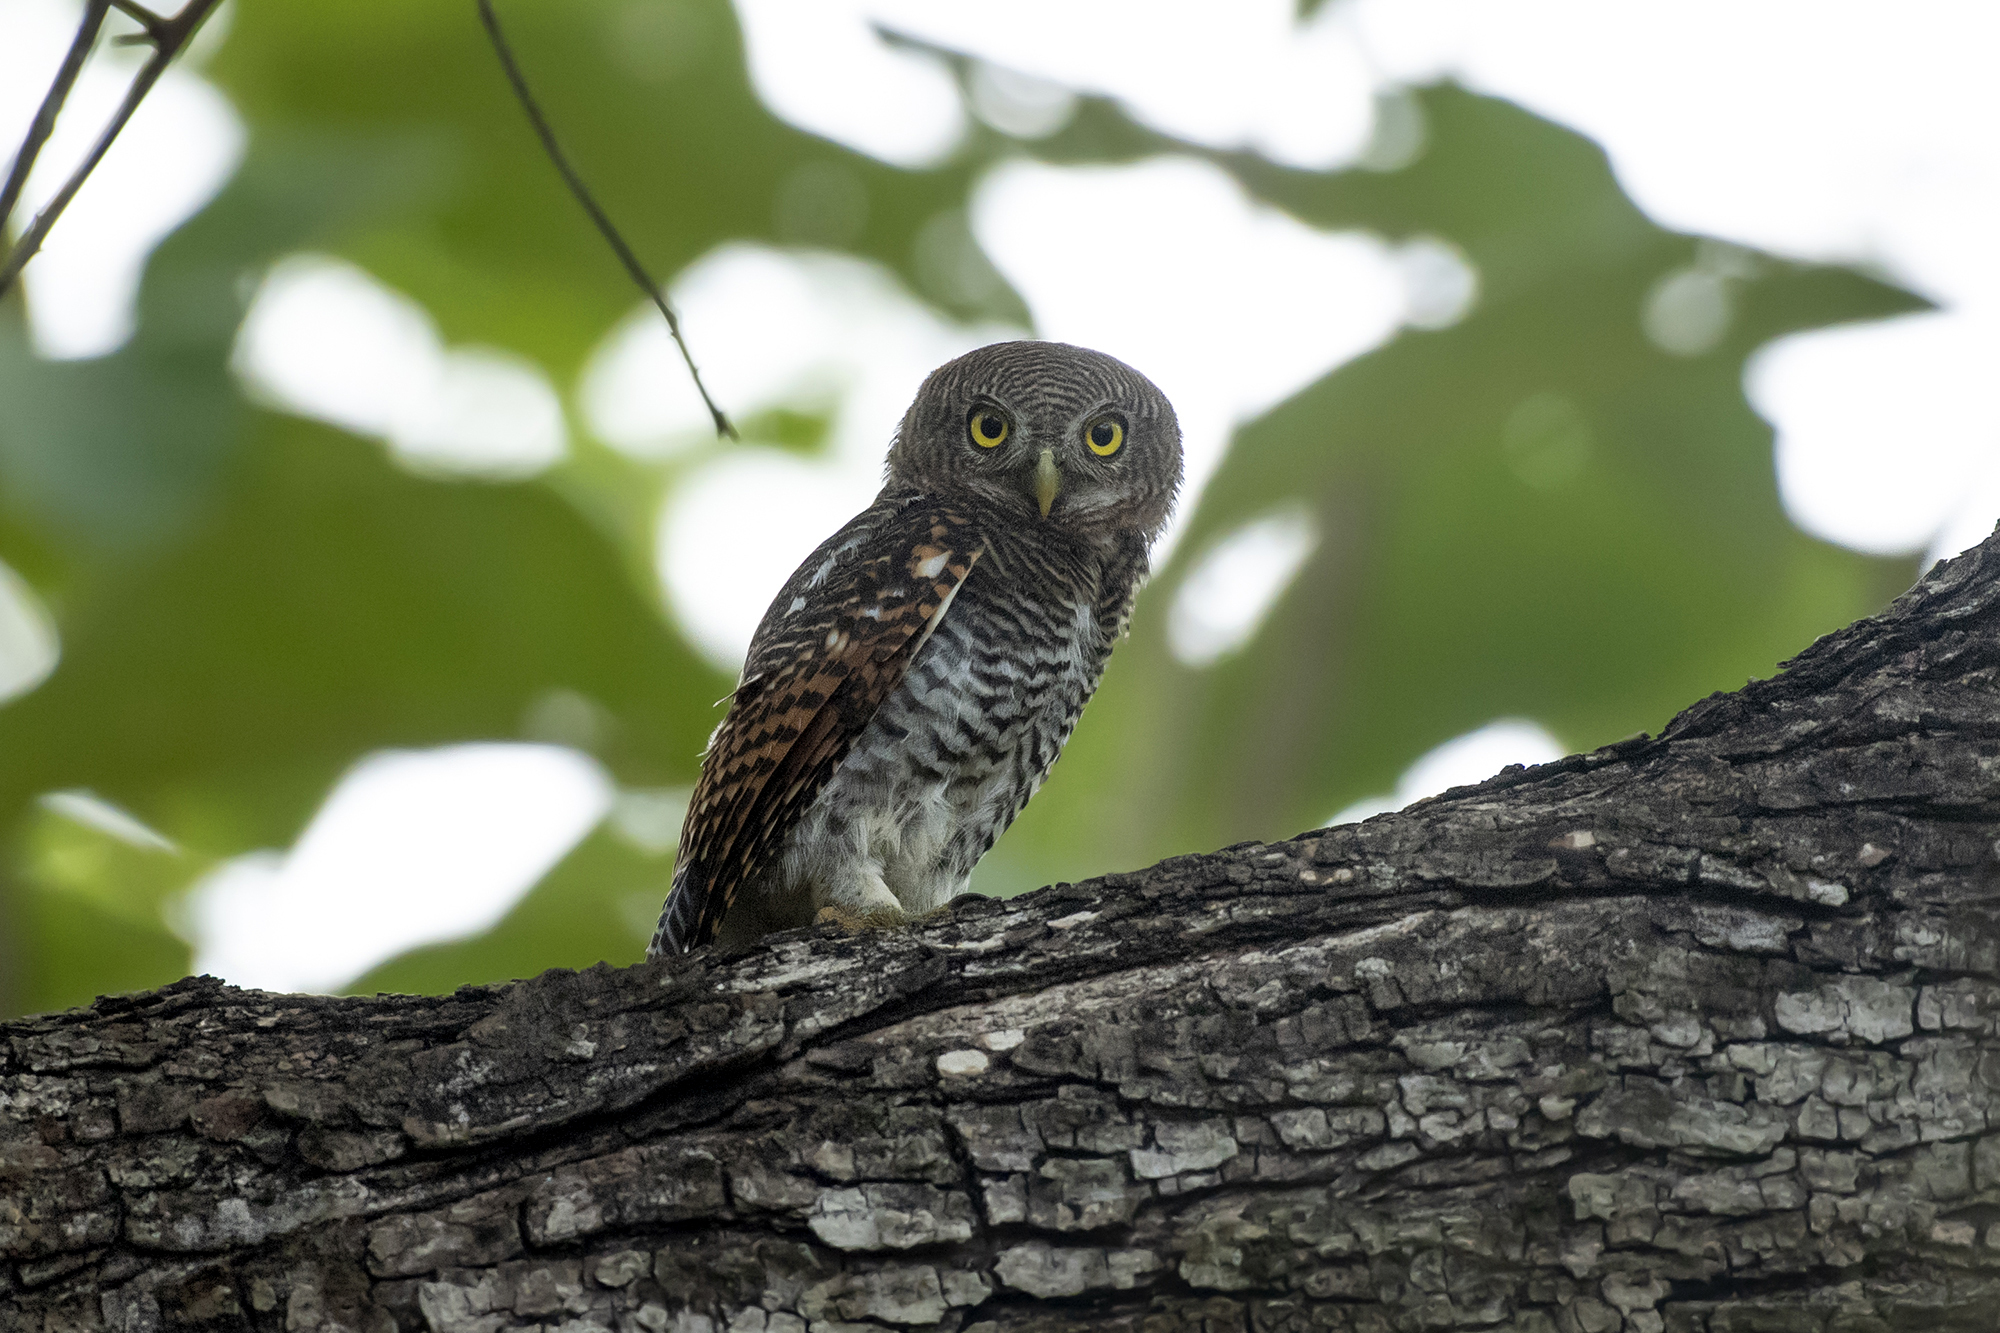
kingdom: Animalia
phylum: Chordata
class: Aves
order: Strigiformes
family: Strigidae
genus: Glaucidium
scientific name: Glaucidium radiatum
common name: Jungle owlet
